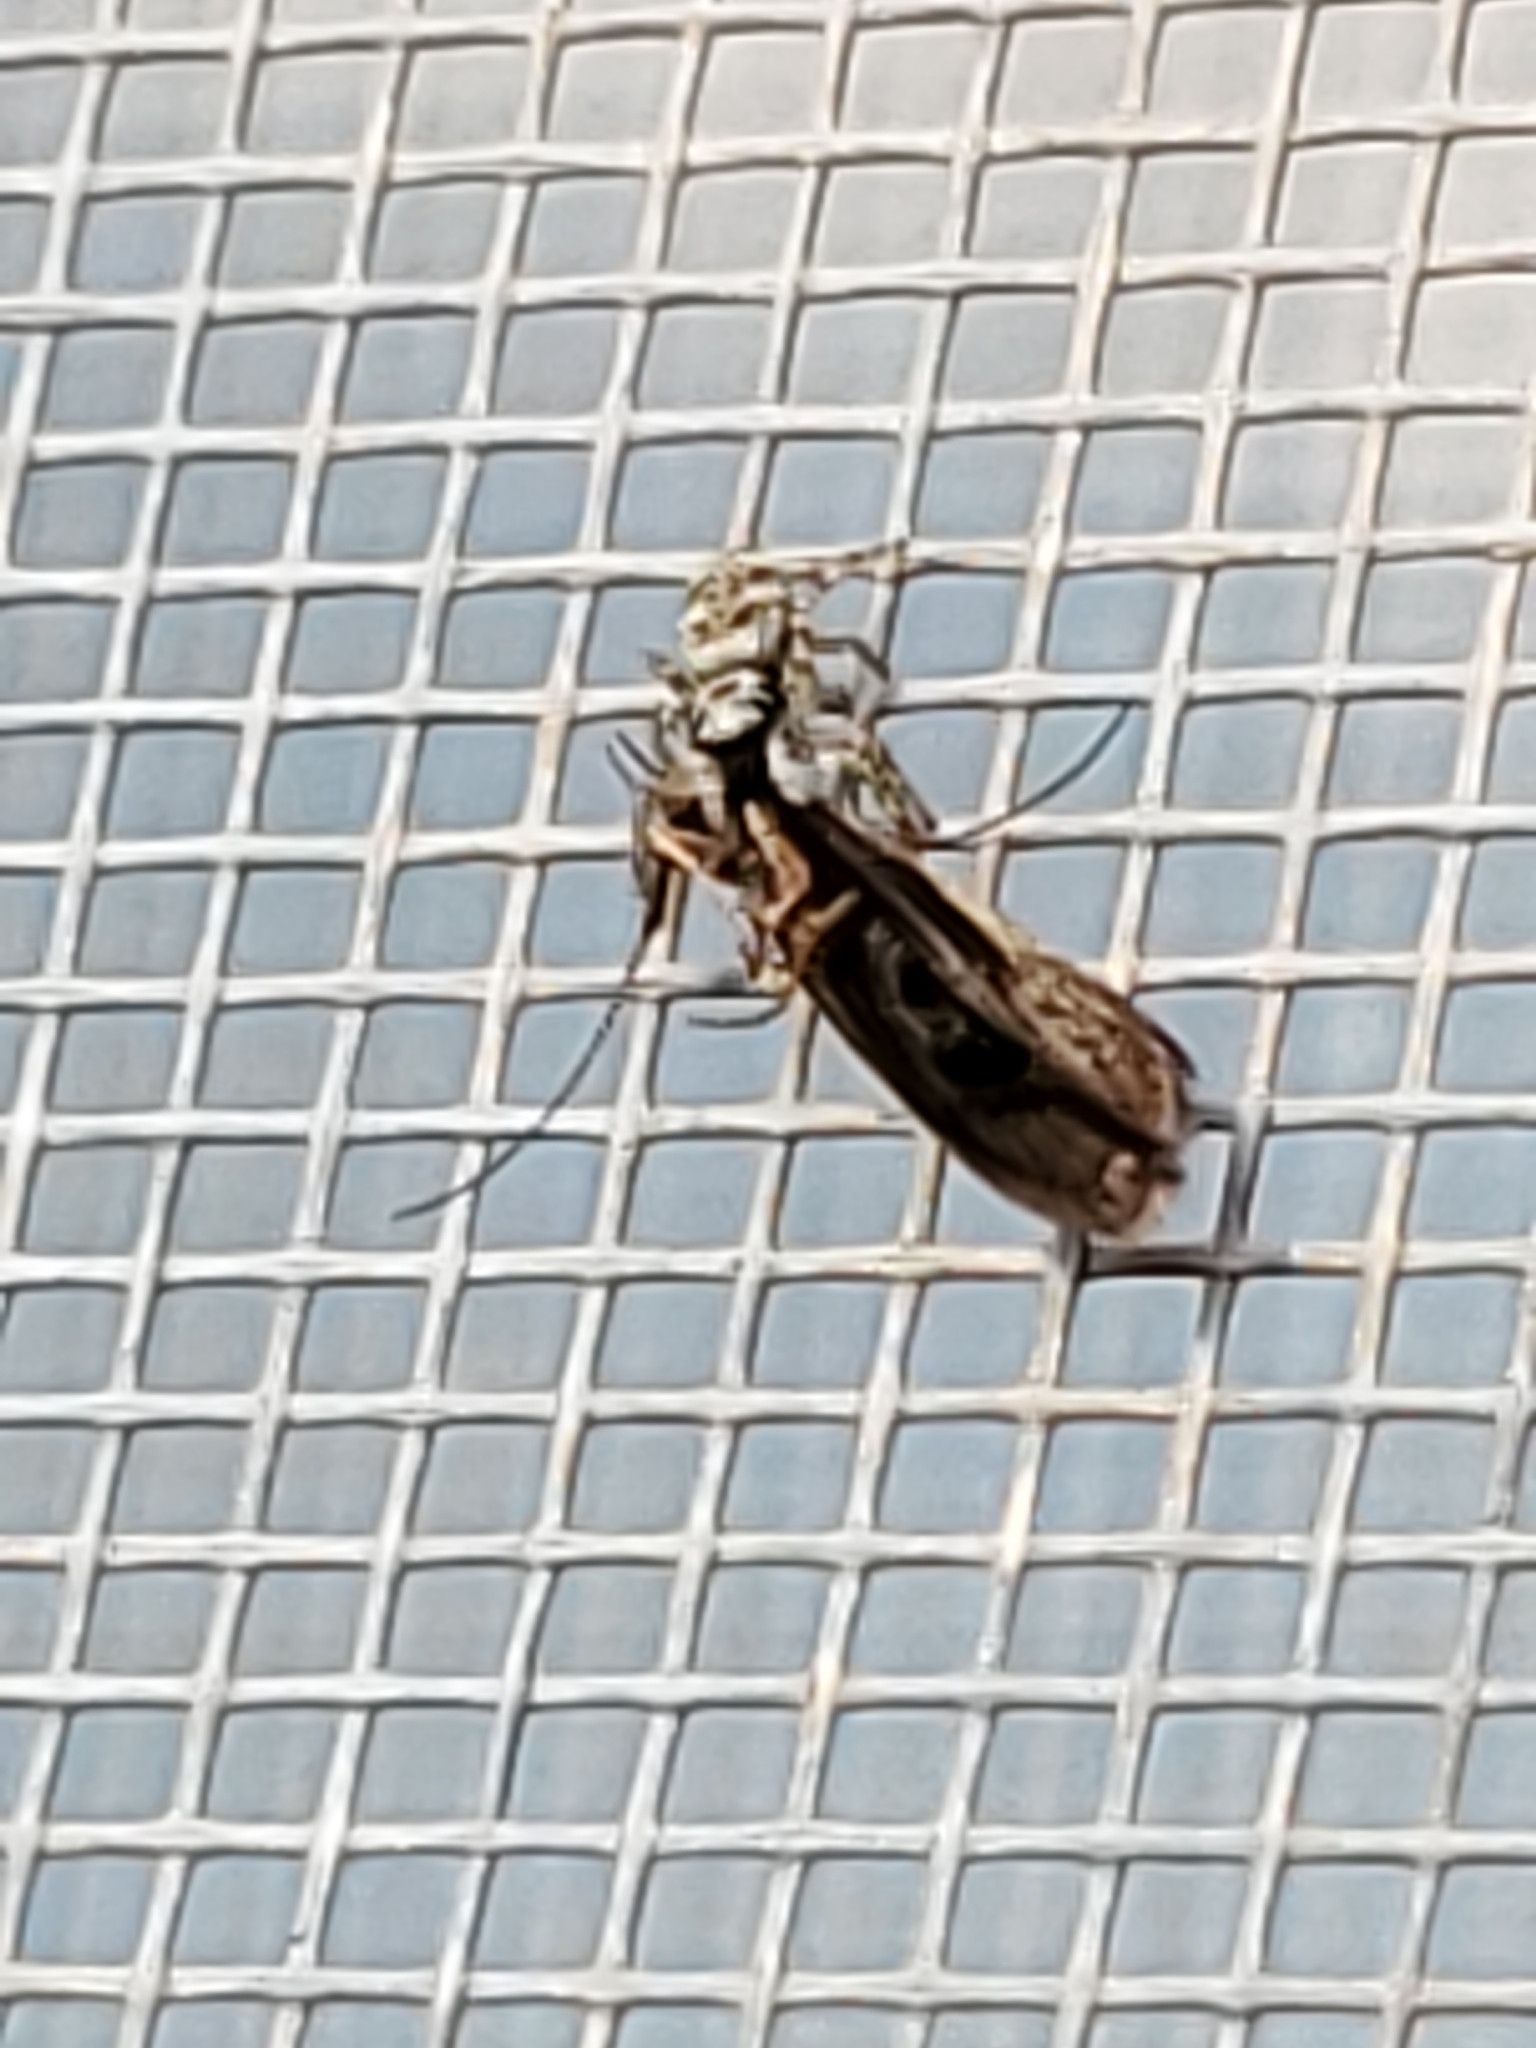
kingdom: Animalia
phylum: Arthropoda
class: Arachnida
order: Araneae
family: Salticidae
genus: Salticus
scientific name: Salticus scenicus
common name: Zebra jumper
